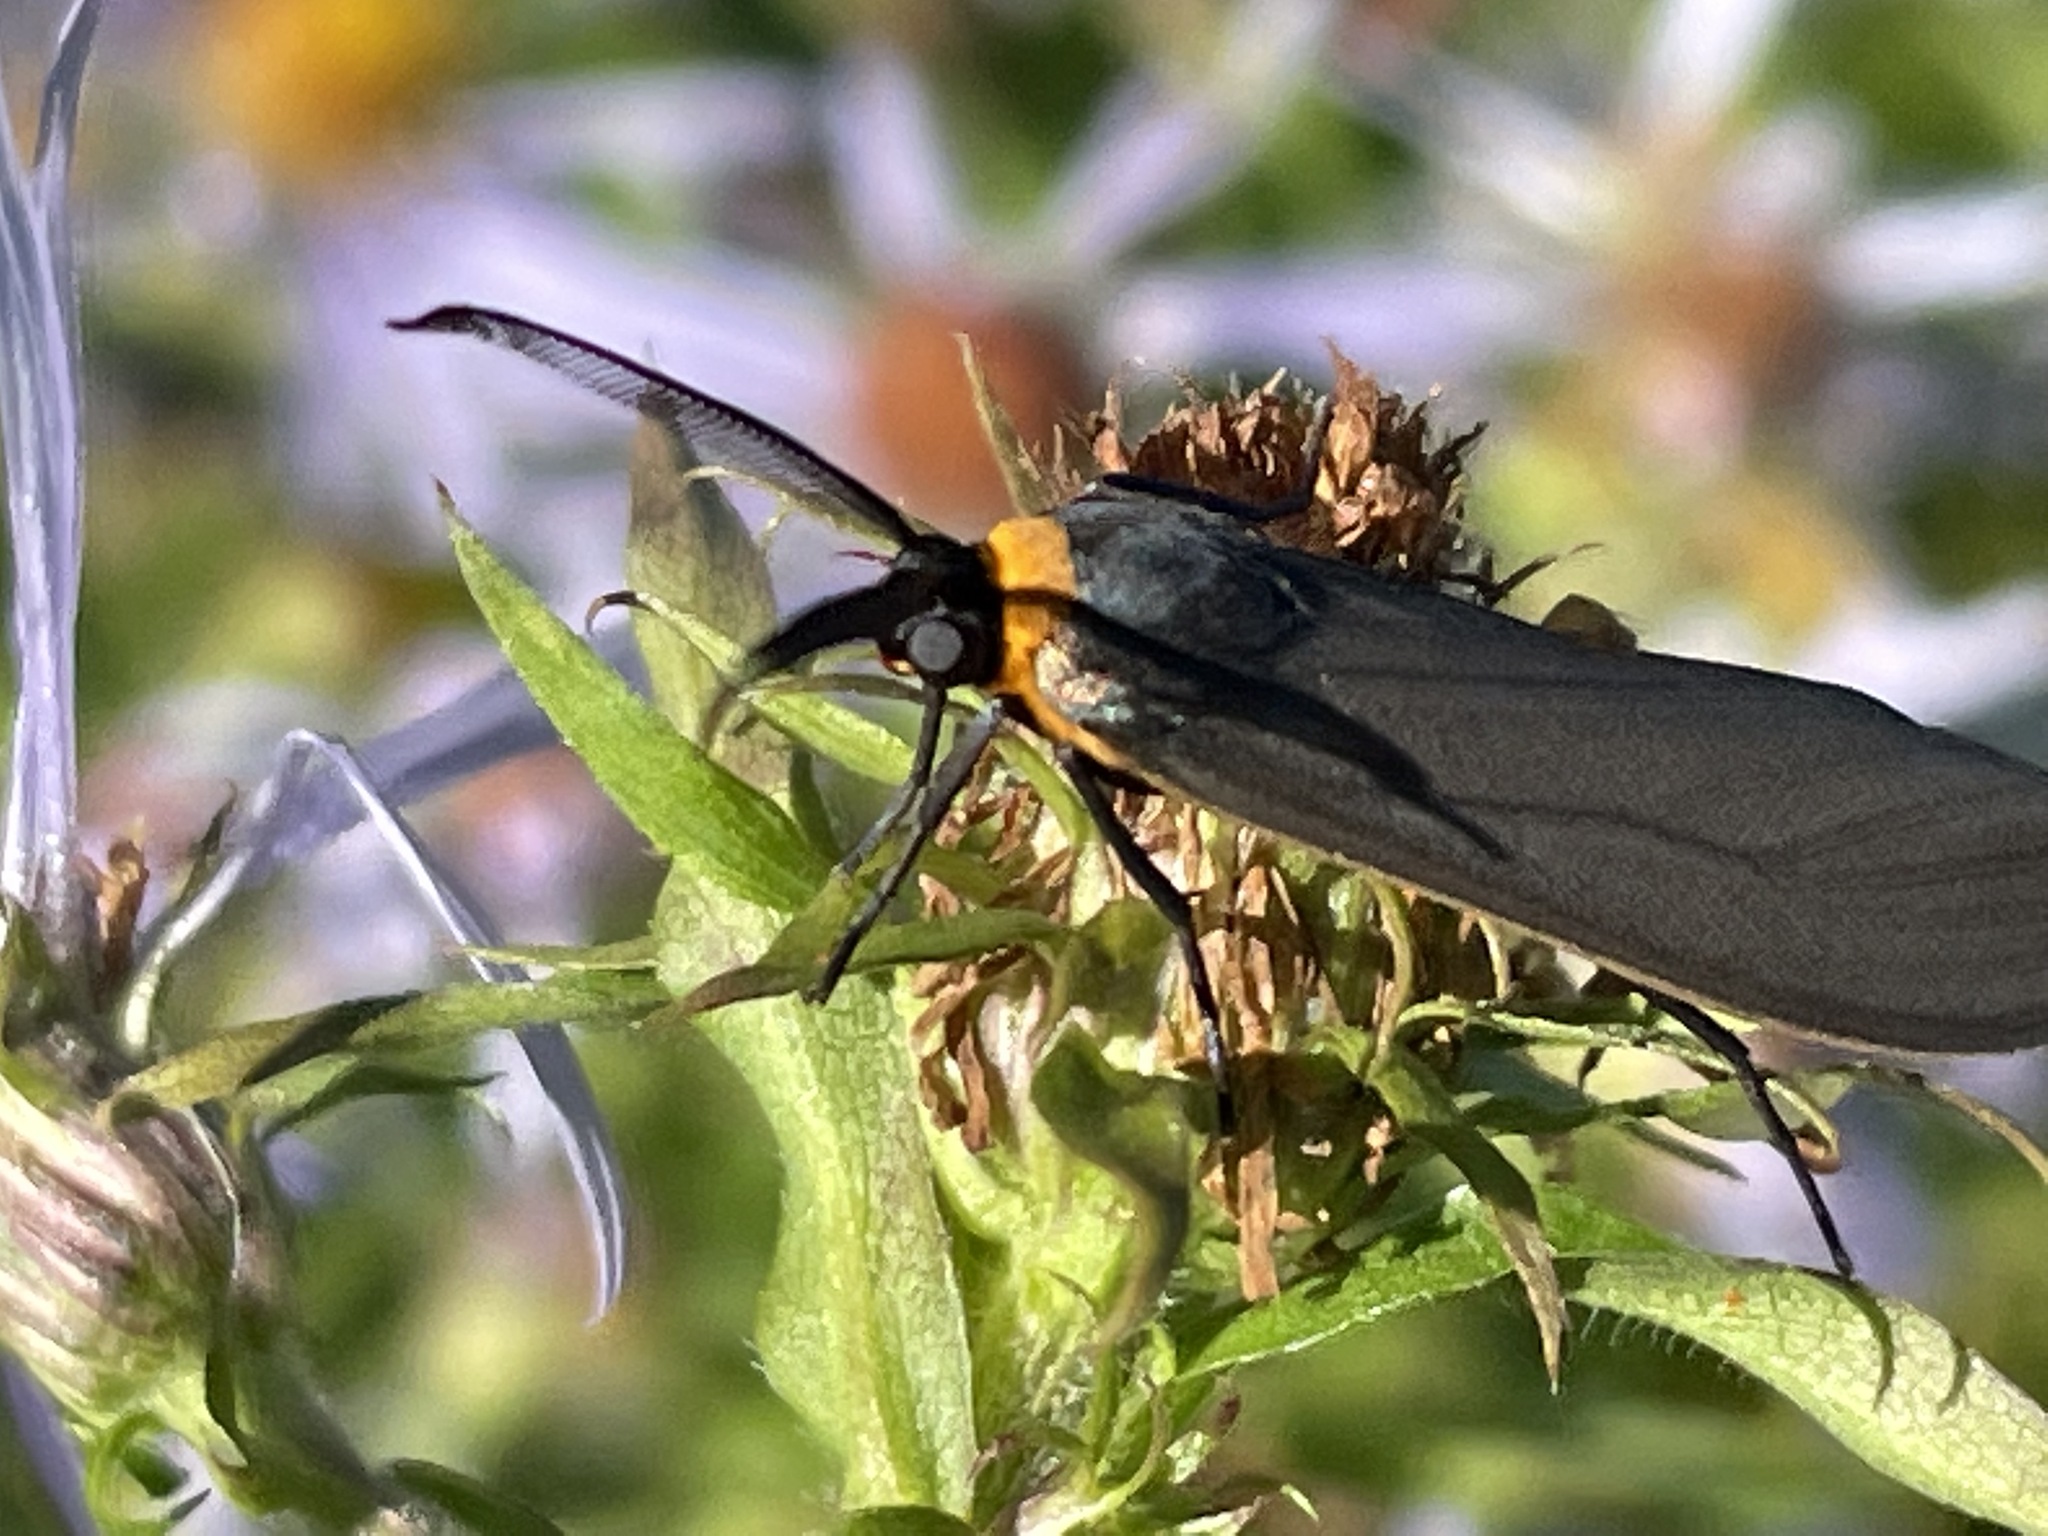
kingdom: Animalia
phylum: Arthropoda
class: Insecta
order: Lepidoptera
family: Erebidae
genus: Cisseps
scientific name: Cisseps fulvicollis
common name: Yellow-collared scape moth
